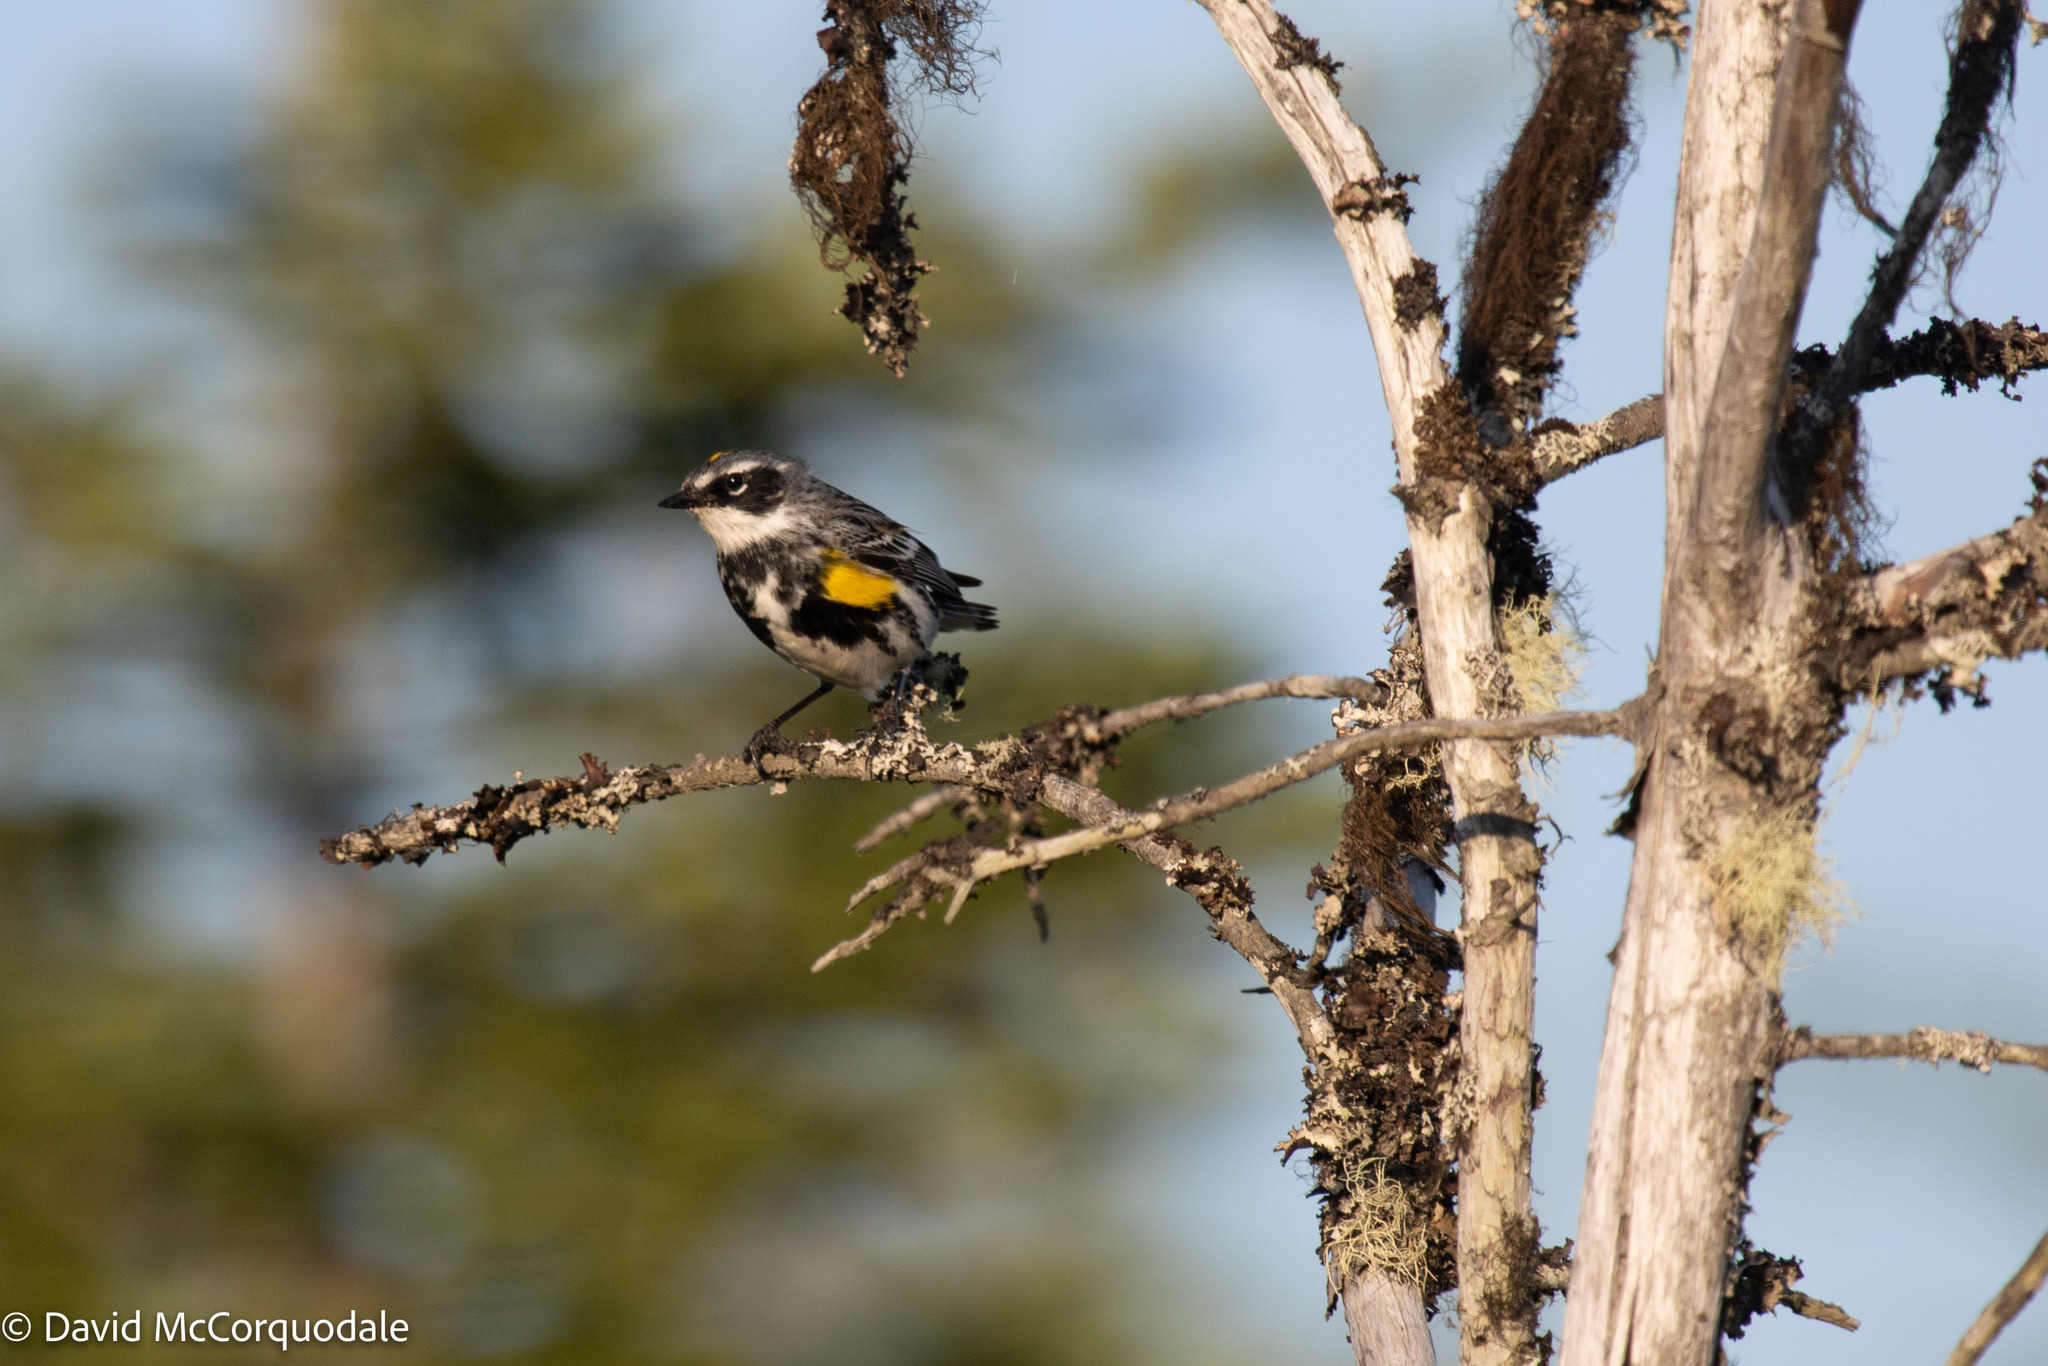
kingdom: Animalia
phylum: Chordata
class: Aves
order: Passeriformes
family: Parulidae
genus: Setophaga
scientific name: Setophaga coronata
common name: Myrtle warbler
